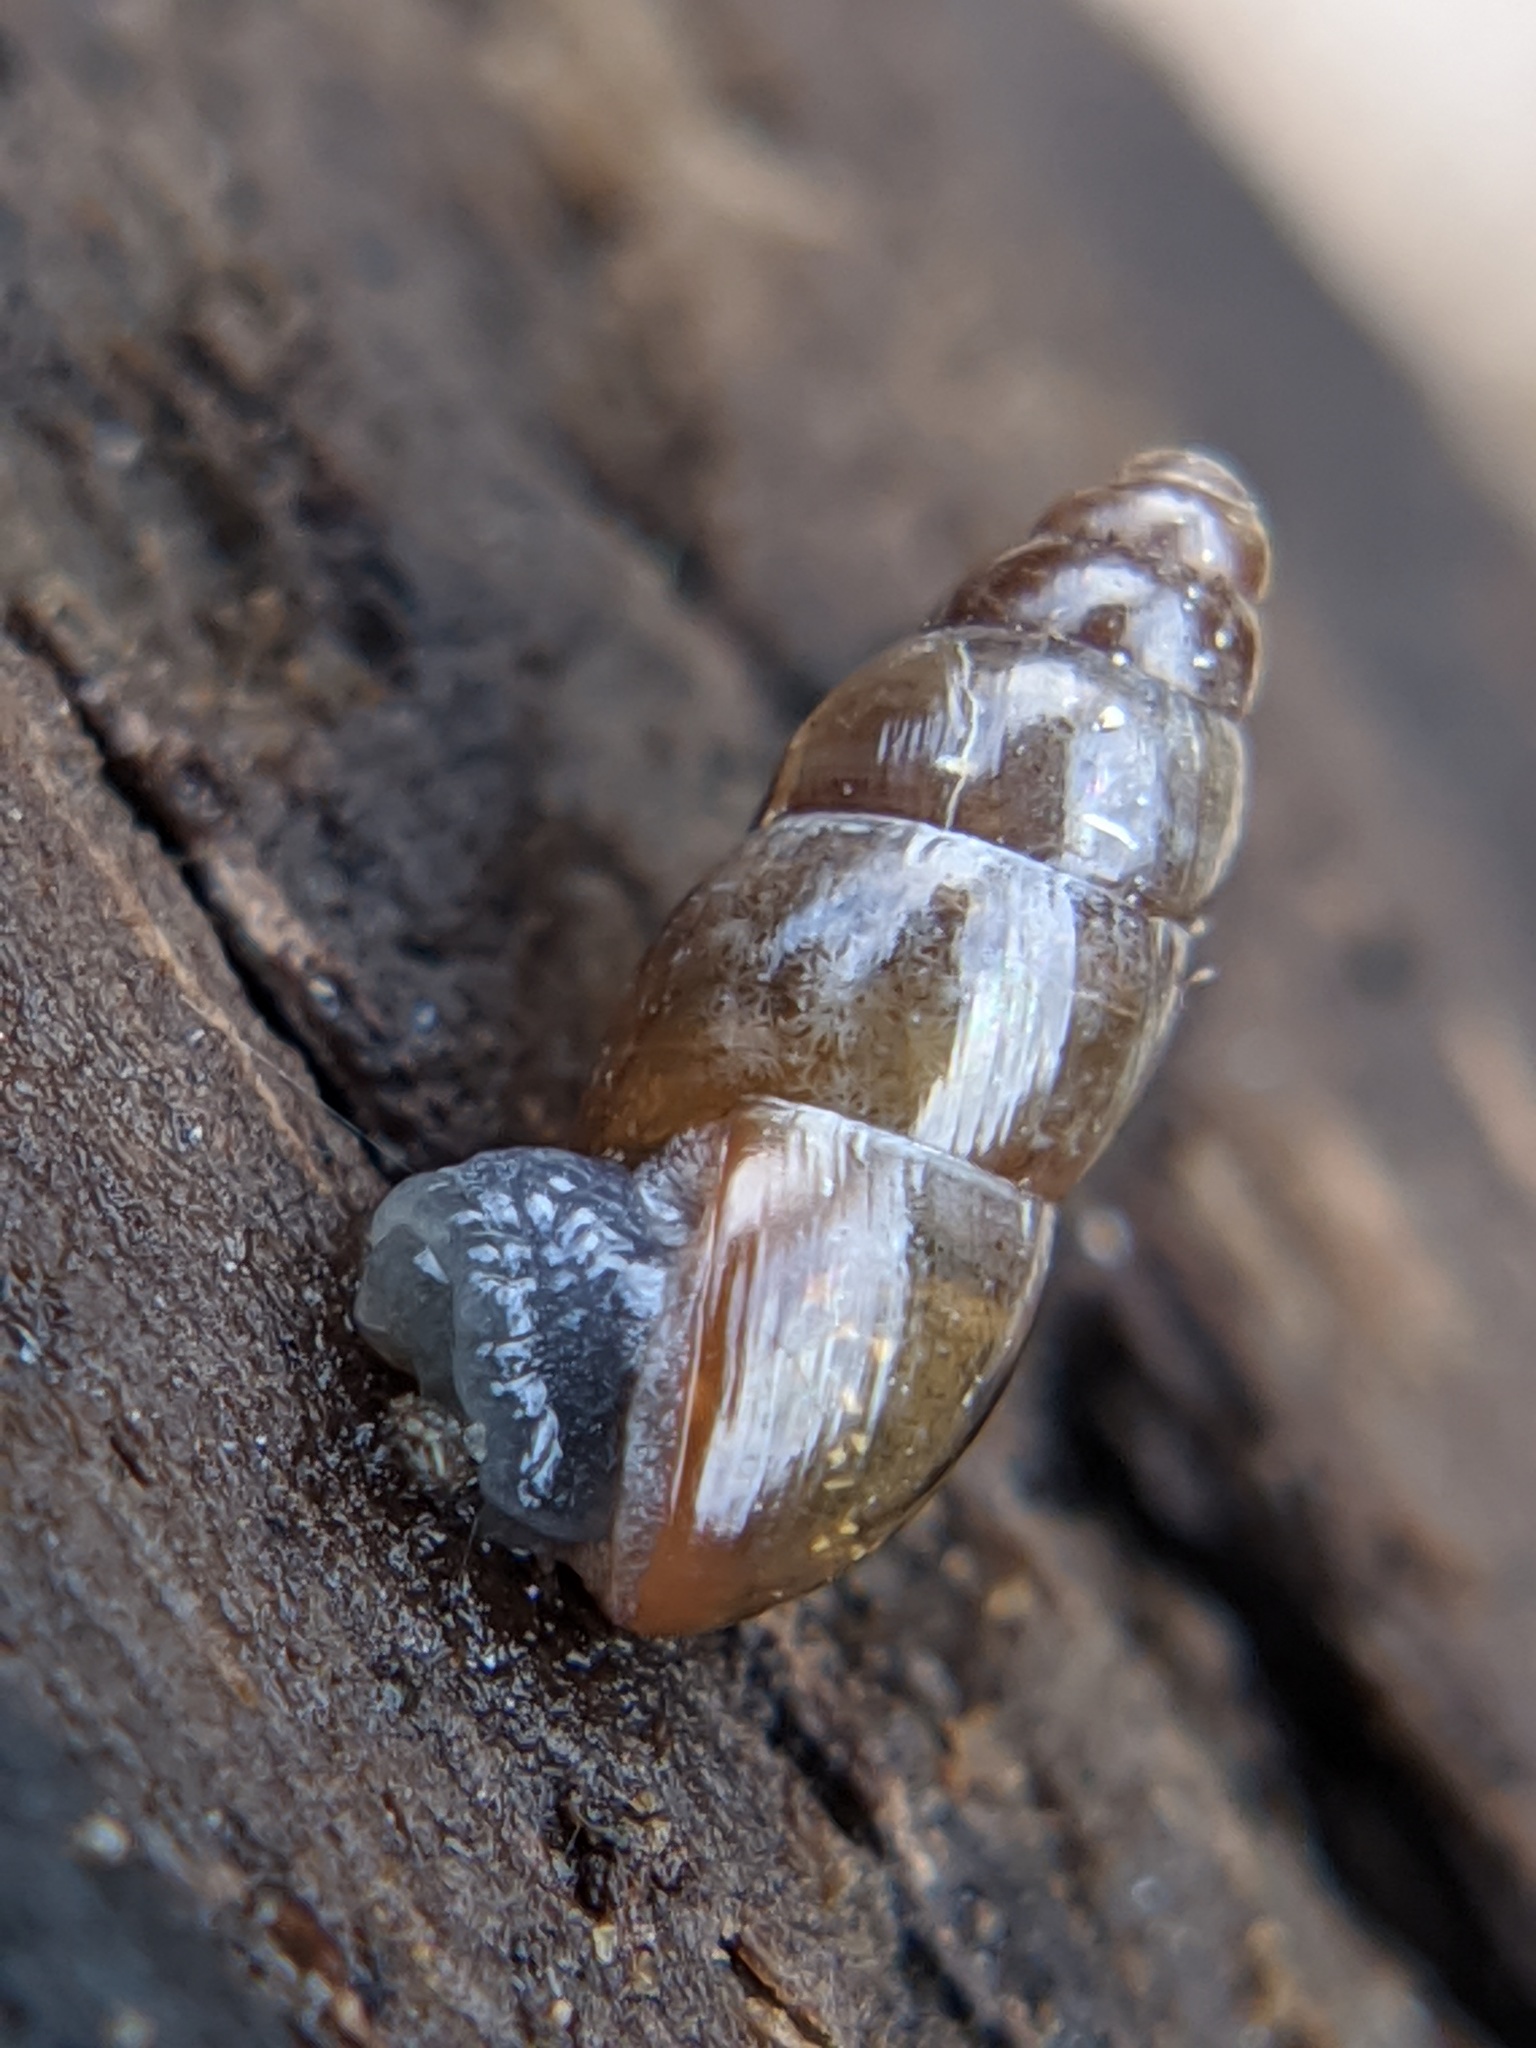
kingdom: Animalia
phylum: Mollusca
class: Gastropoda
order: Stylommatophora
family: Cochlicopidae
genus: Cochlicopa
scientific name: Cochlicopa lubrica
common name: Glossy pillar snail
